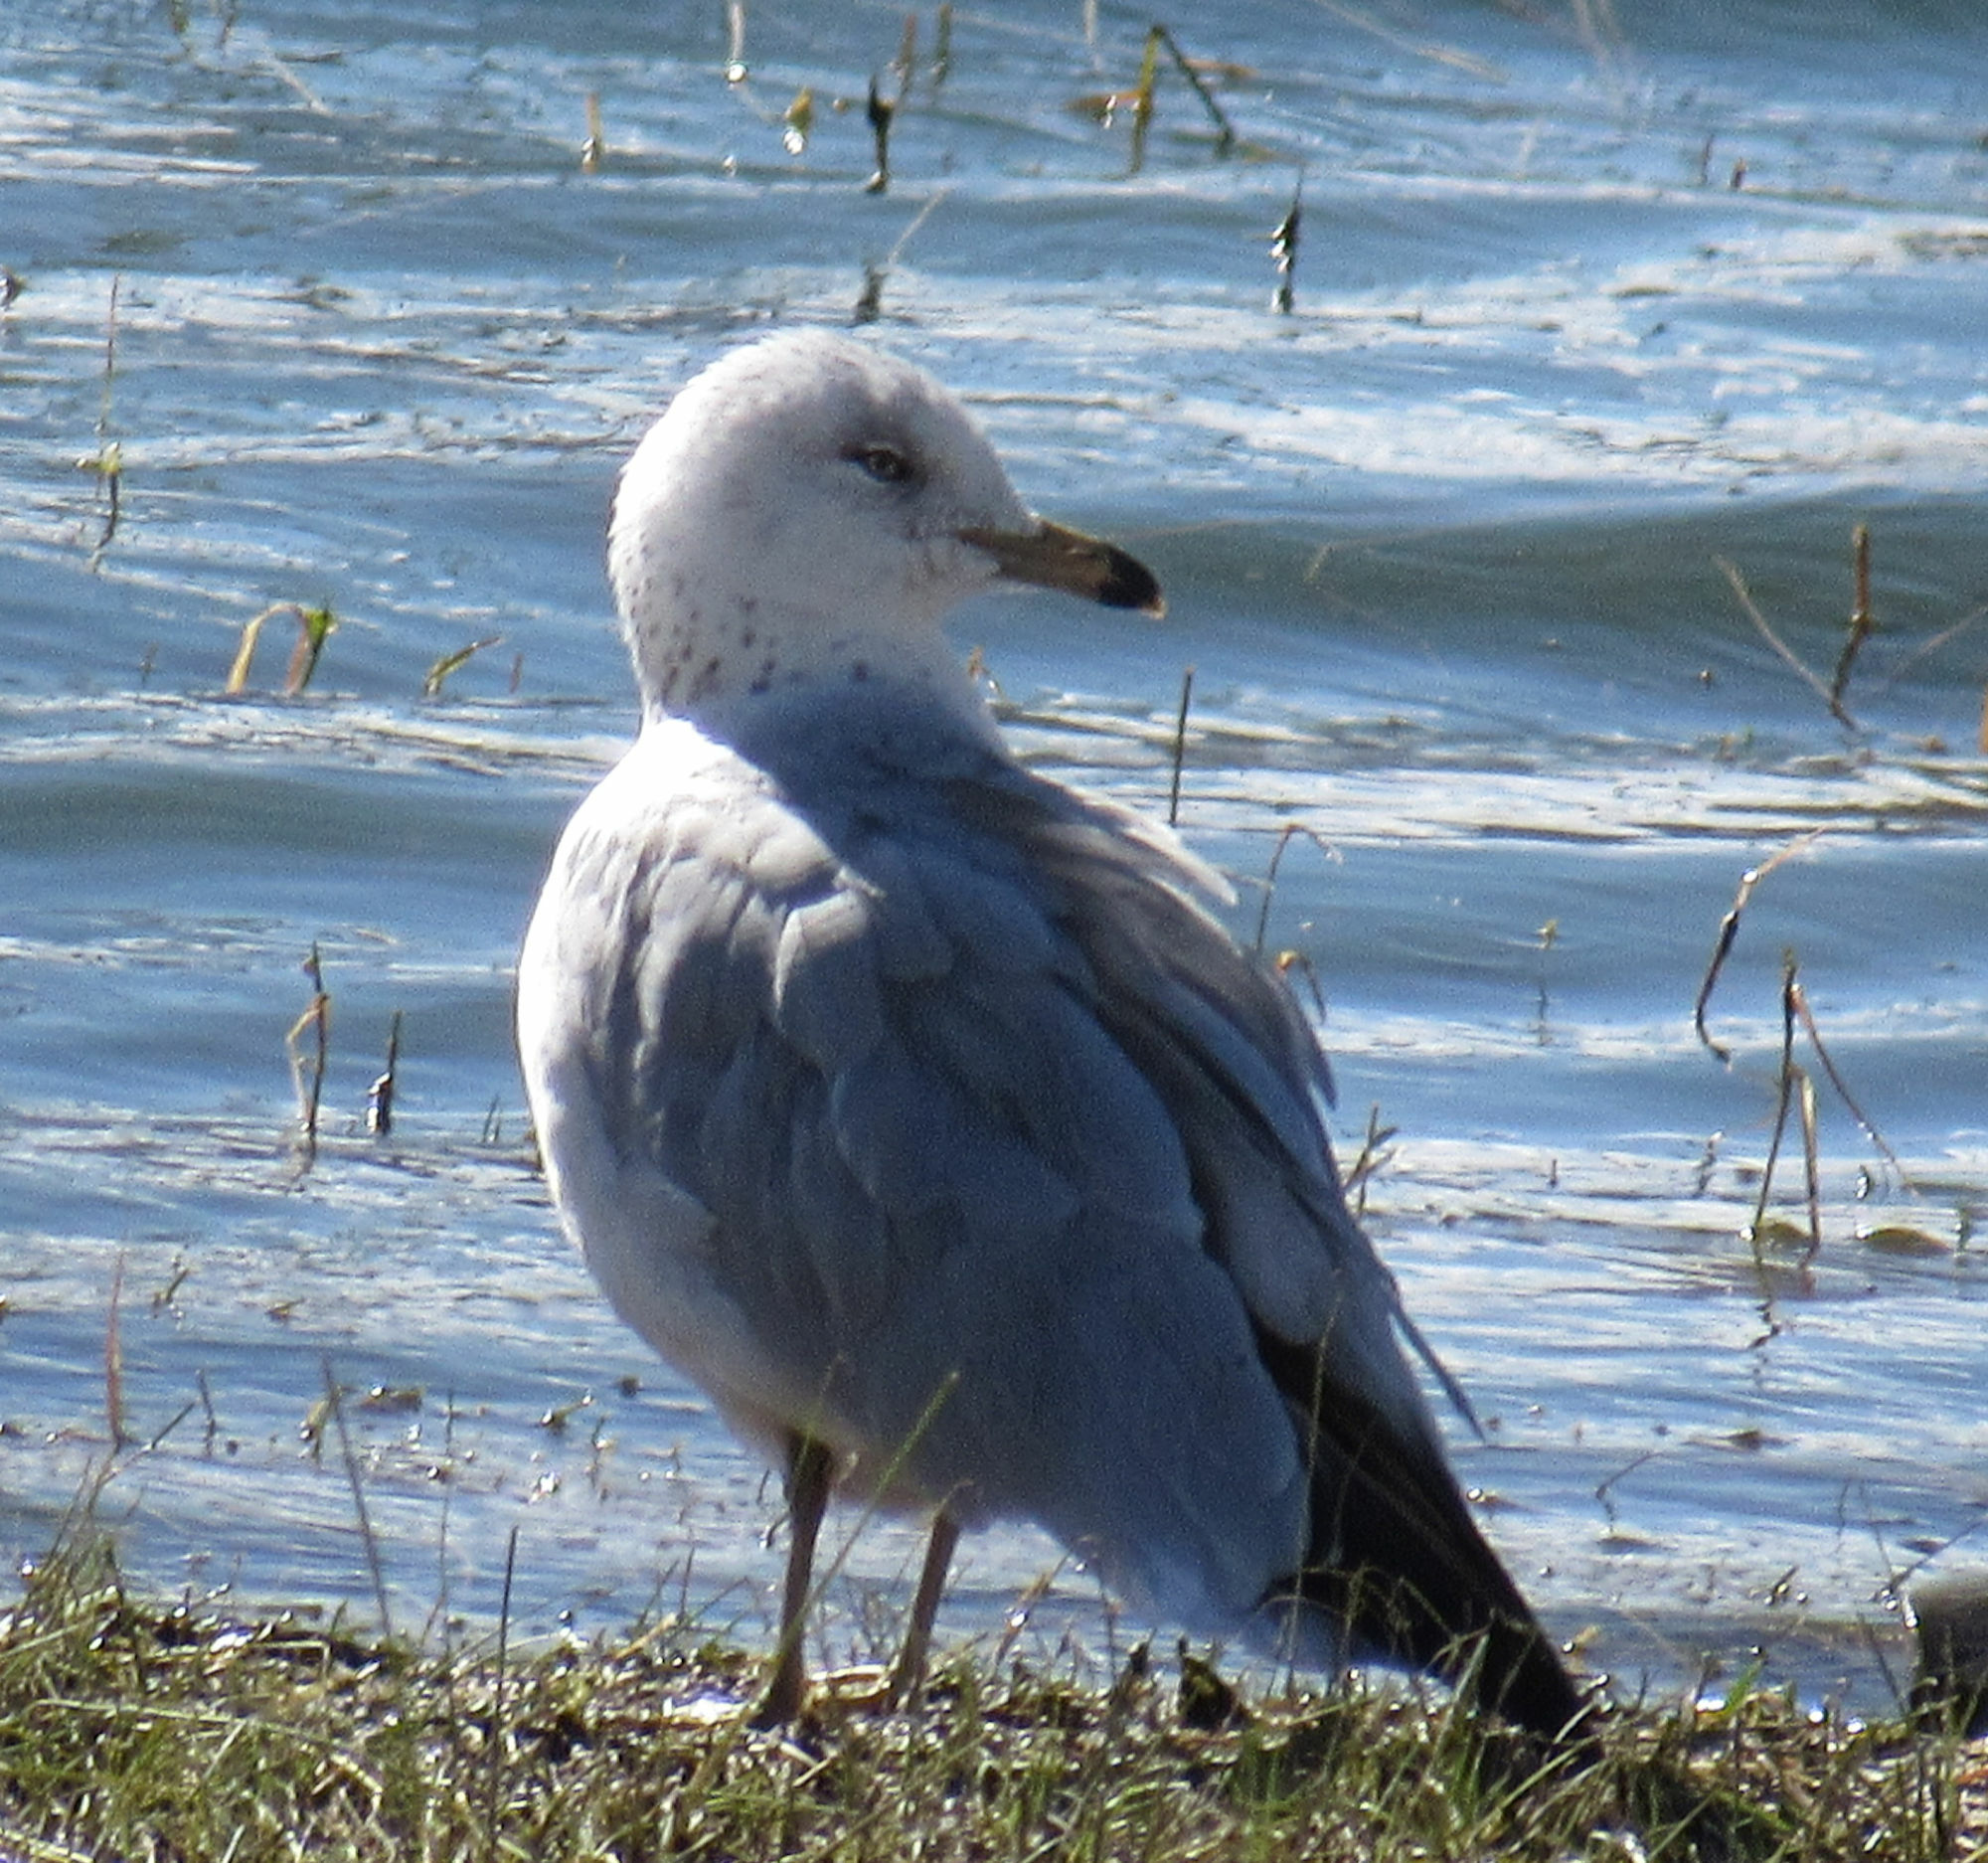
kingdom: Animalia
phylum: Chordata
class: Aves
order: Charadriiformes
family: Laridae
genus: Larus
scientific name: Larus delawarensis
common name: Ring-billed gull
